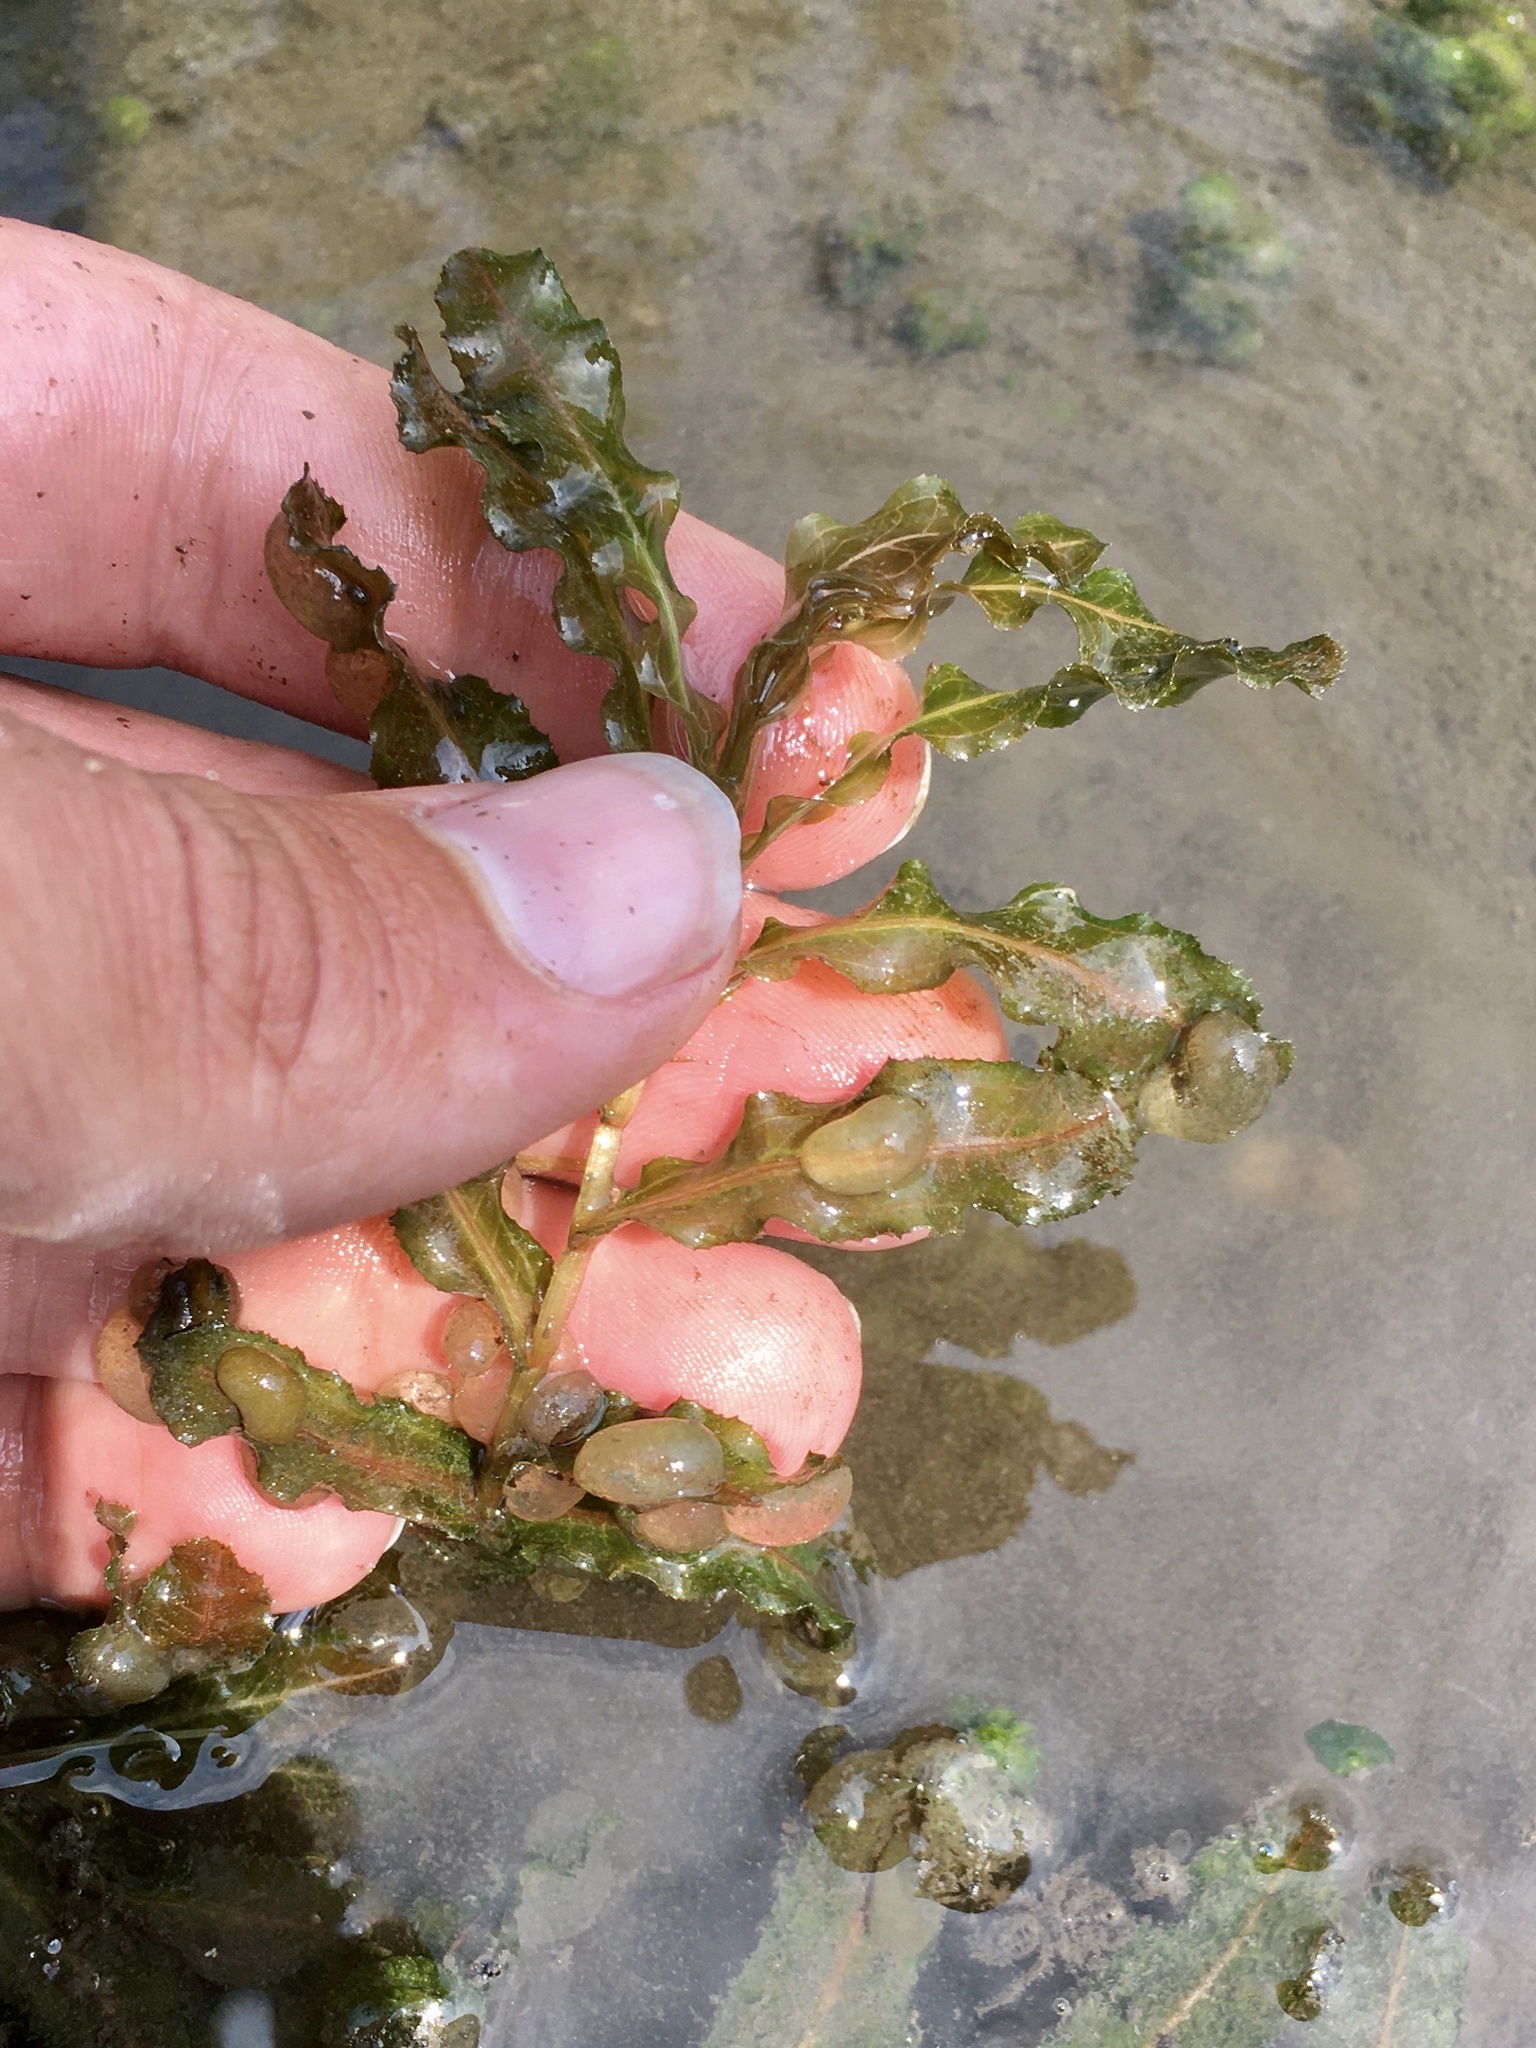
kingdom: Plantae
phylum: Tracheophyta
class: Liliopsida
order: Alismatales
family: Potamogetonaceae
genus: Potamogeton
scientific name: Potamogeton crispus
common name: Curled pondweed
